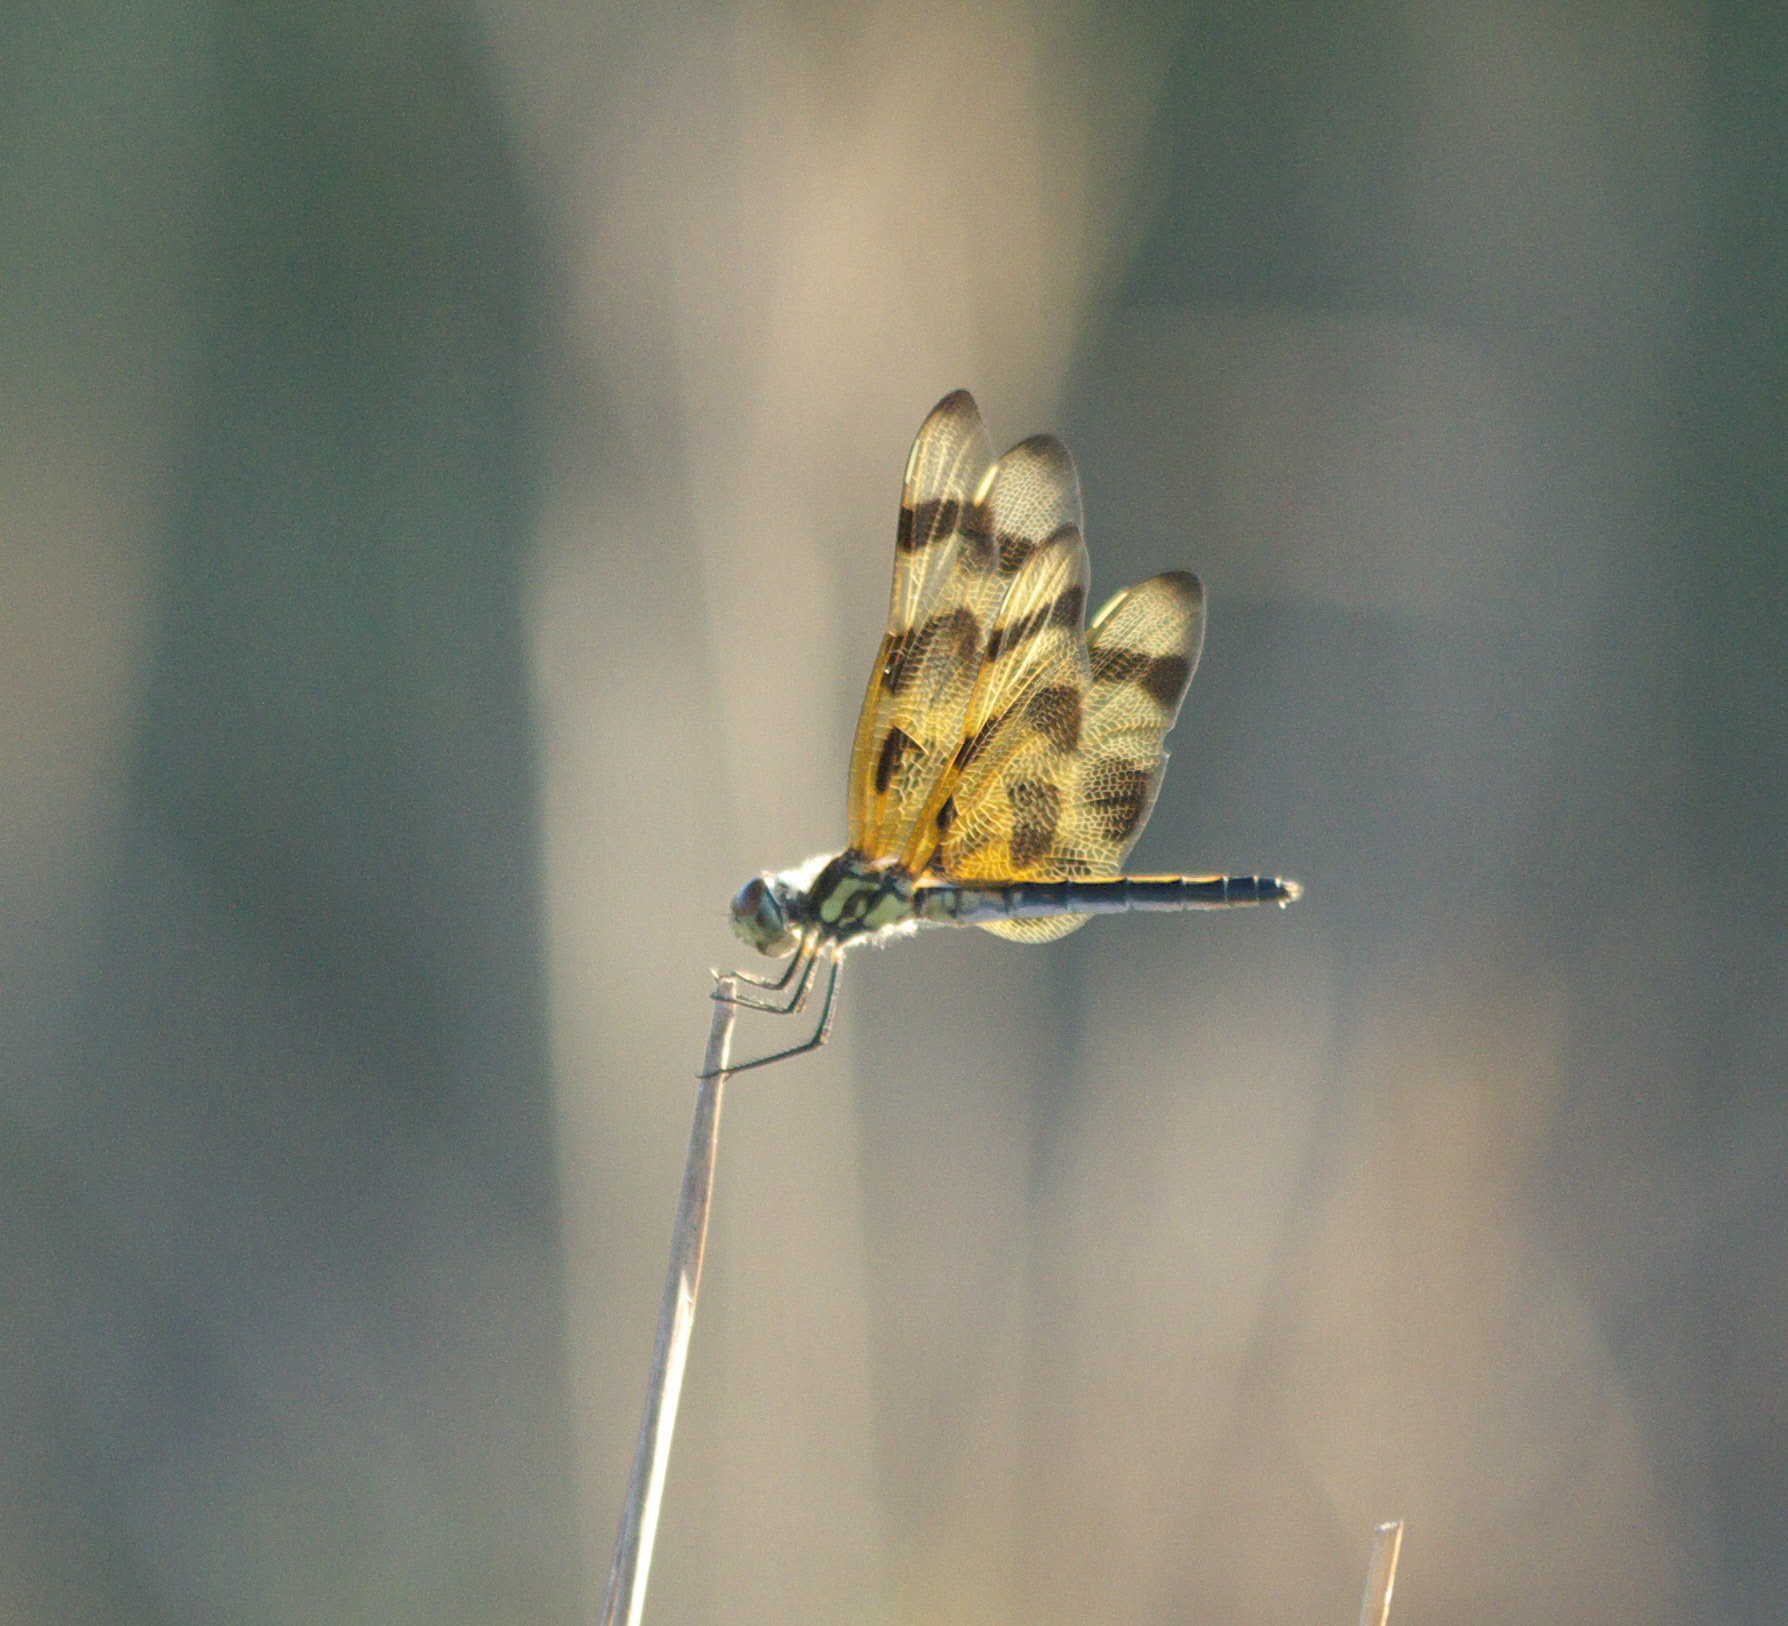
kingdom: Animalia
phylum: Arthropoda
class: Insecta
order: Odonata
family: Libellulidae
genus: Celithemis
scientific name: Celithemis eponina
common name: Halloween pennant
